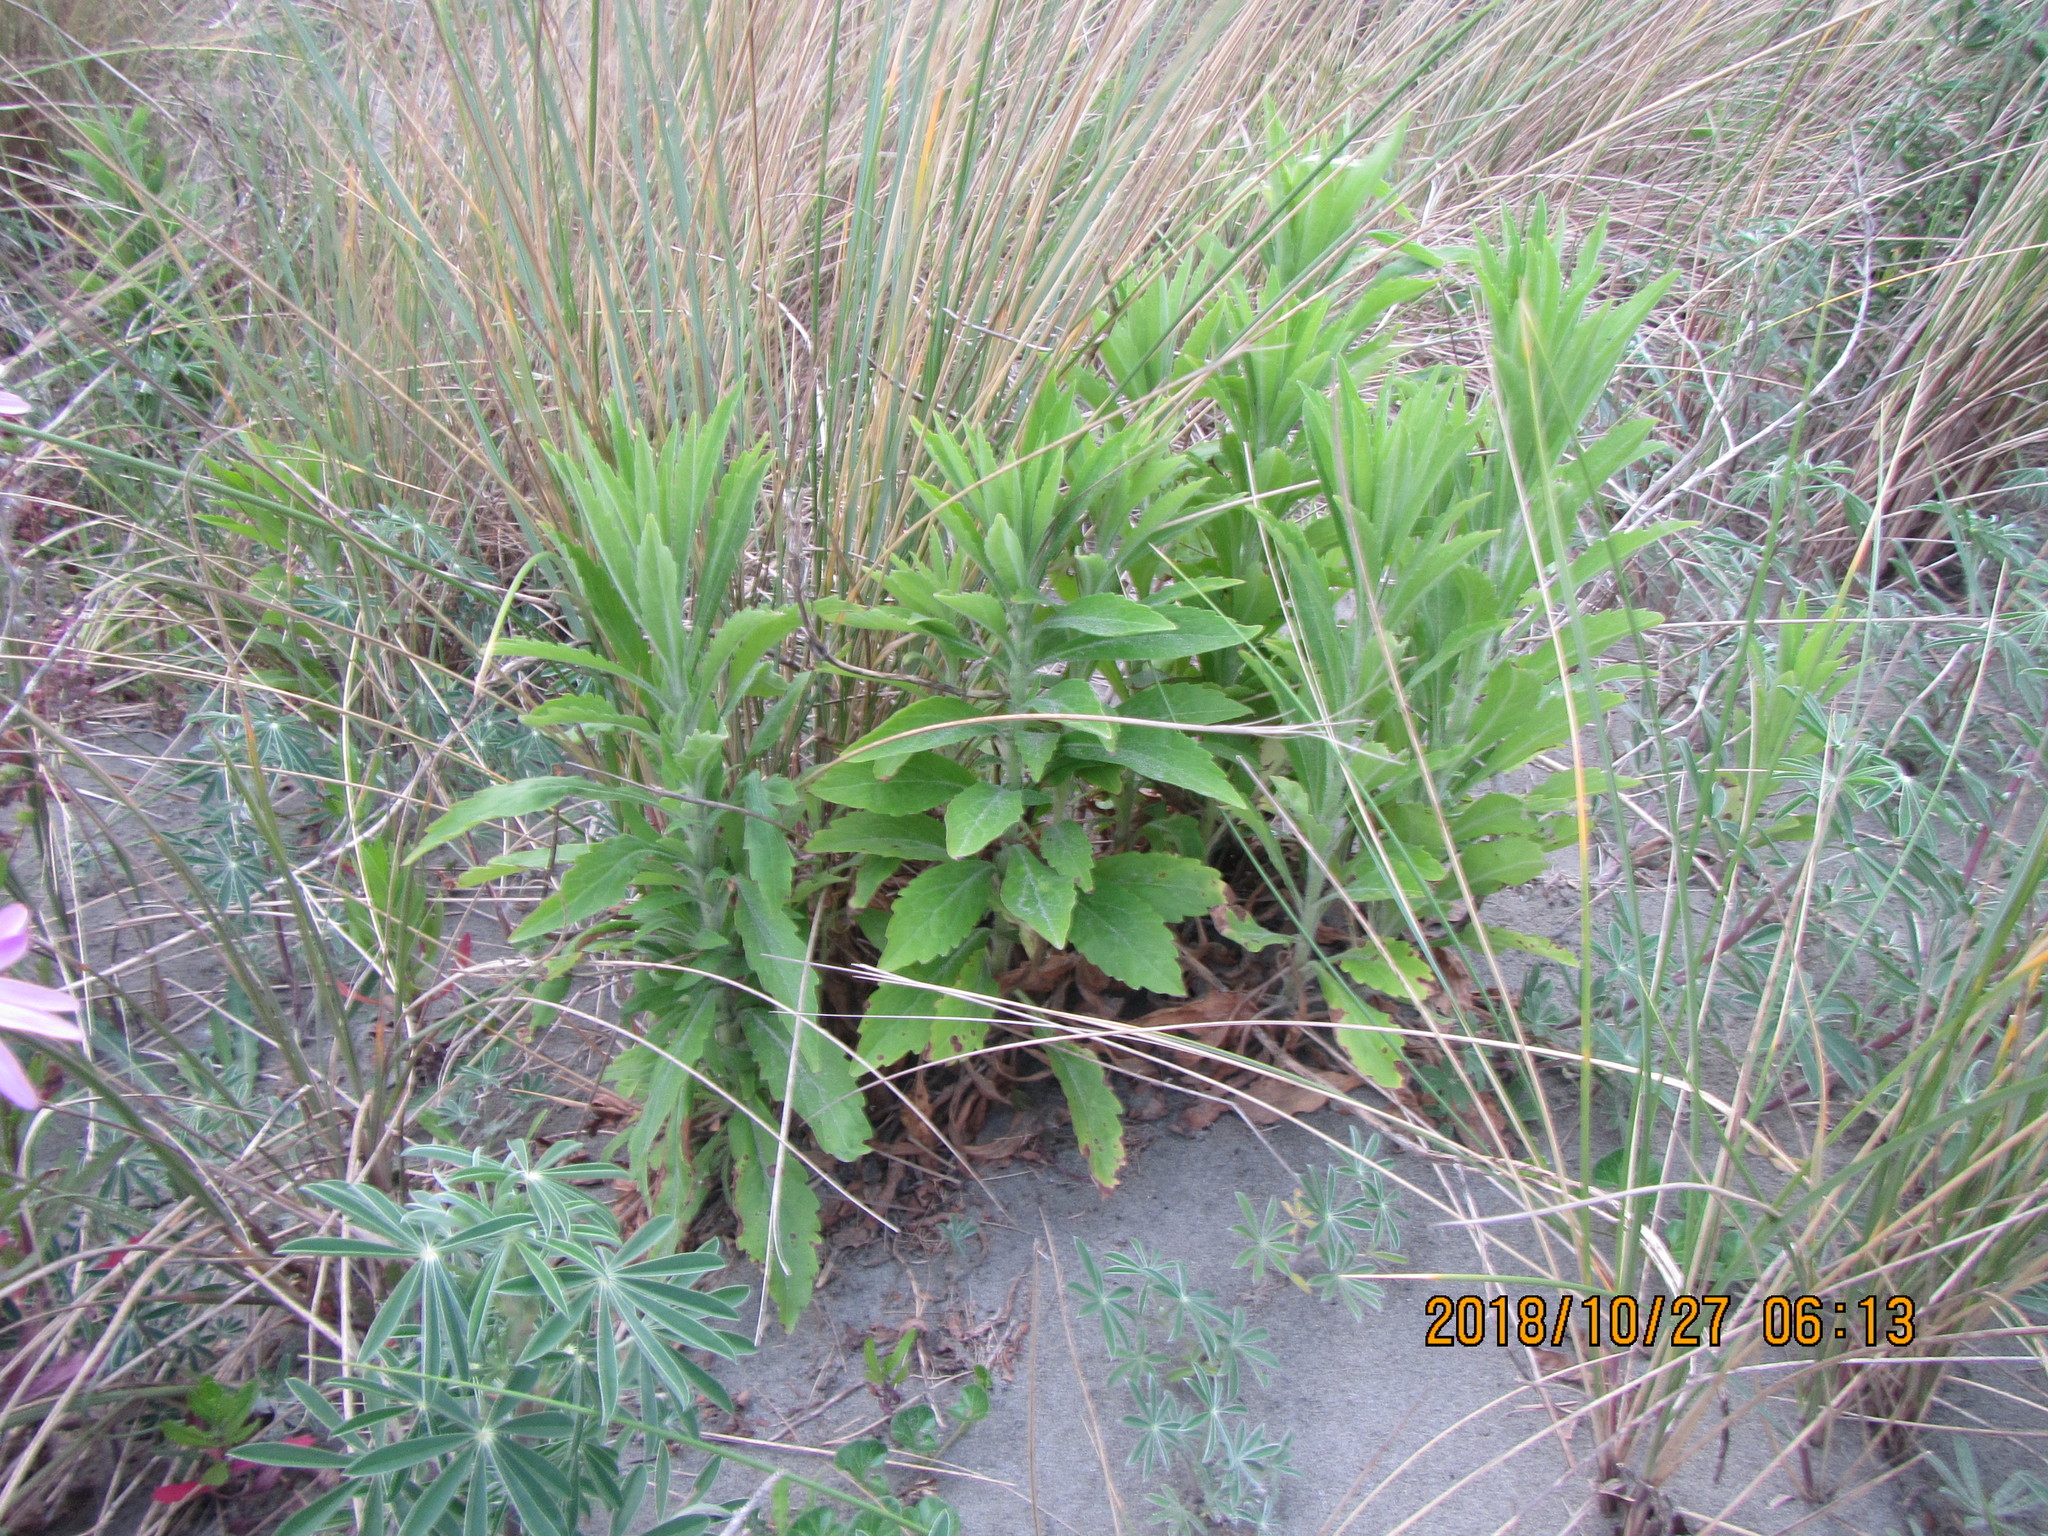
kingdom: Plantae
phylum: Tracheophyta
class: Magnoliopsida
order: Asterales
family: Asteraceae
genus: Erigeron
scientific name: Erigeron sumatrensis
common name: Daisy
